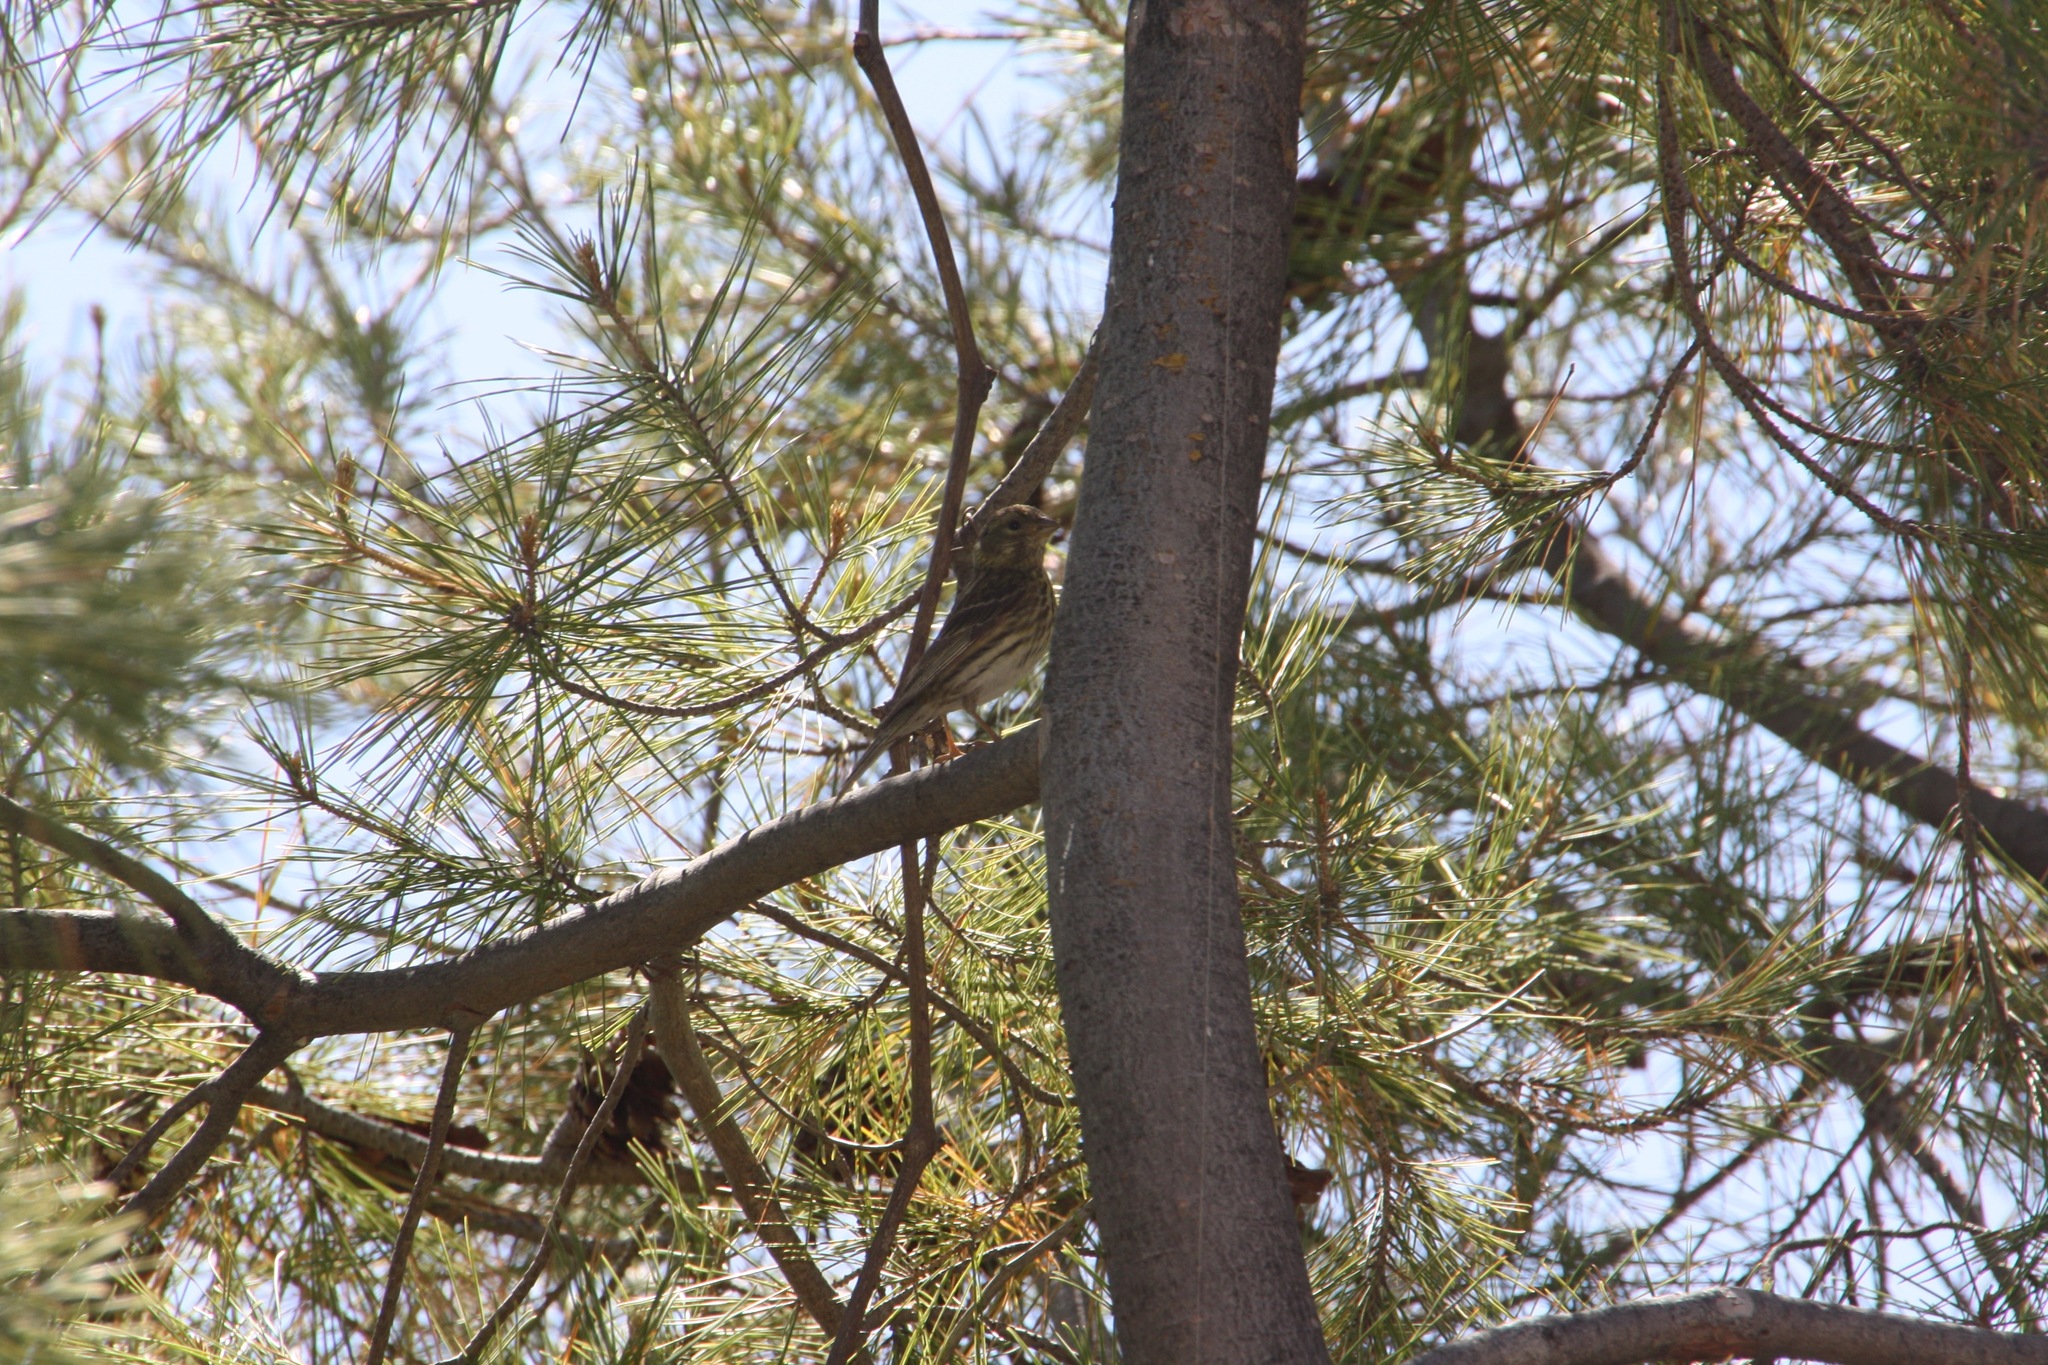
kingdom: Animalia
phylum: Chordata
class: Aves
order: Passeriformes
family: Fringillidae
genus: Serinus
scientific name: Serinus serinus
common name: European serin
